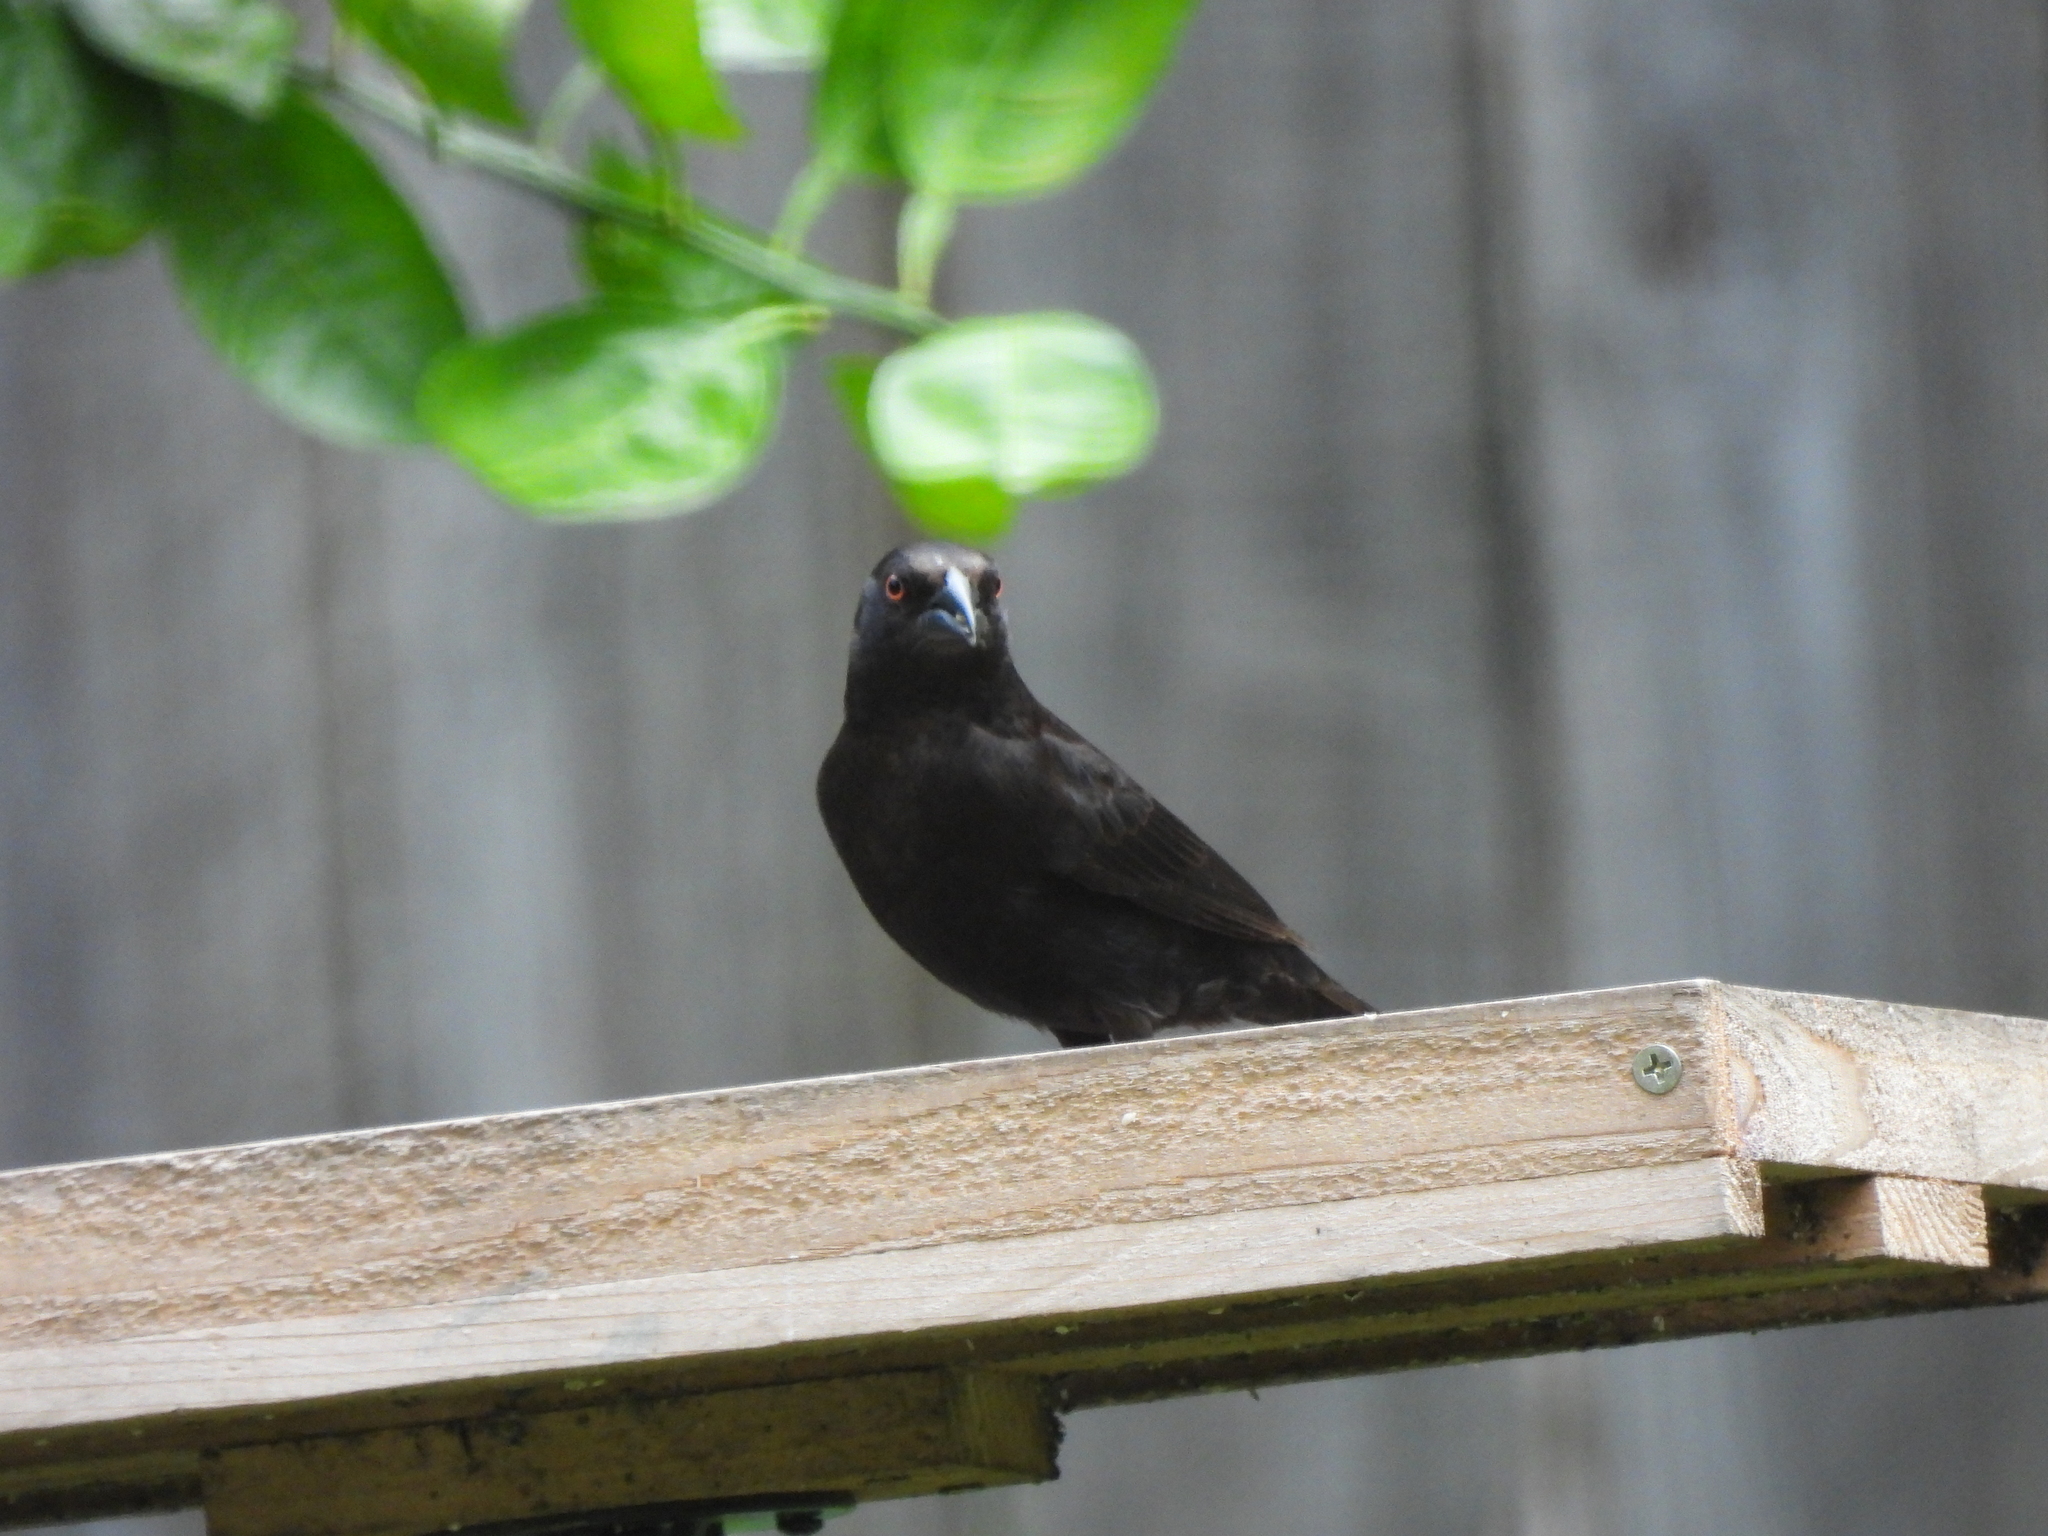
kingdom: Animalia
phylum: Chordata
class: Aves
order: Passeriformes
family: Icteridae
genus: Molothrus
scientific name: Molothrus aeneus
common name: Bronzed cowbird
